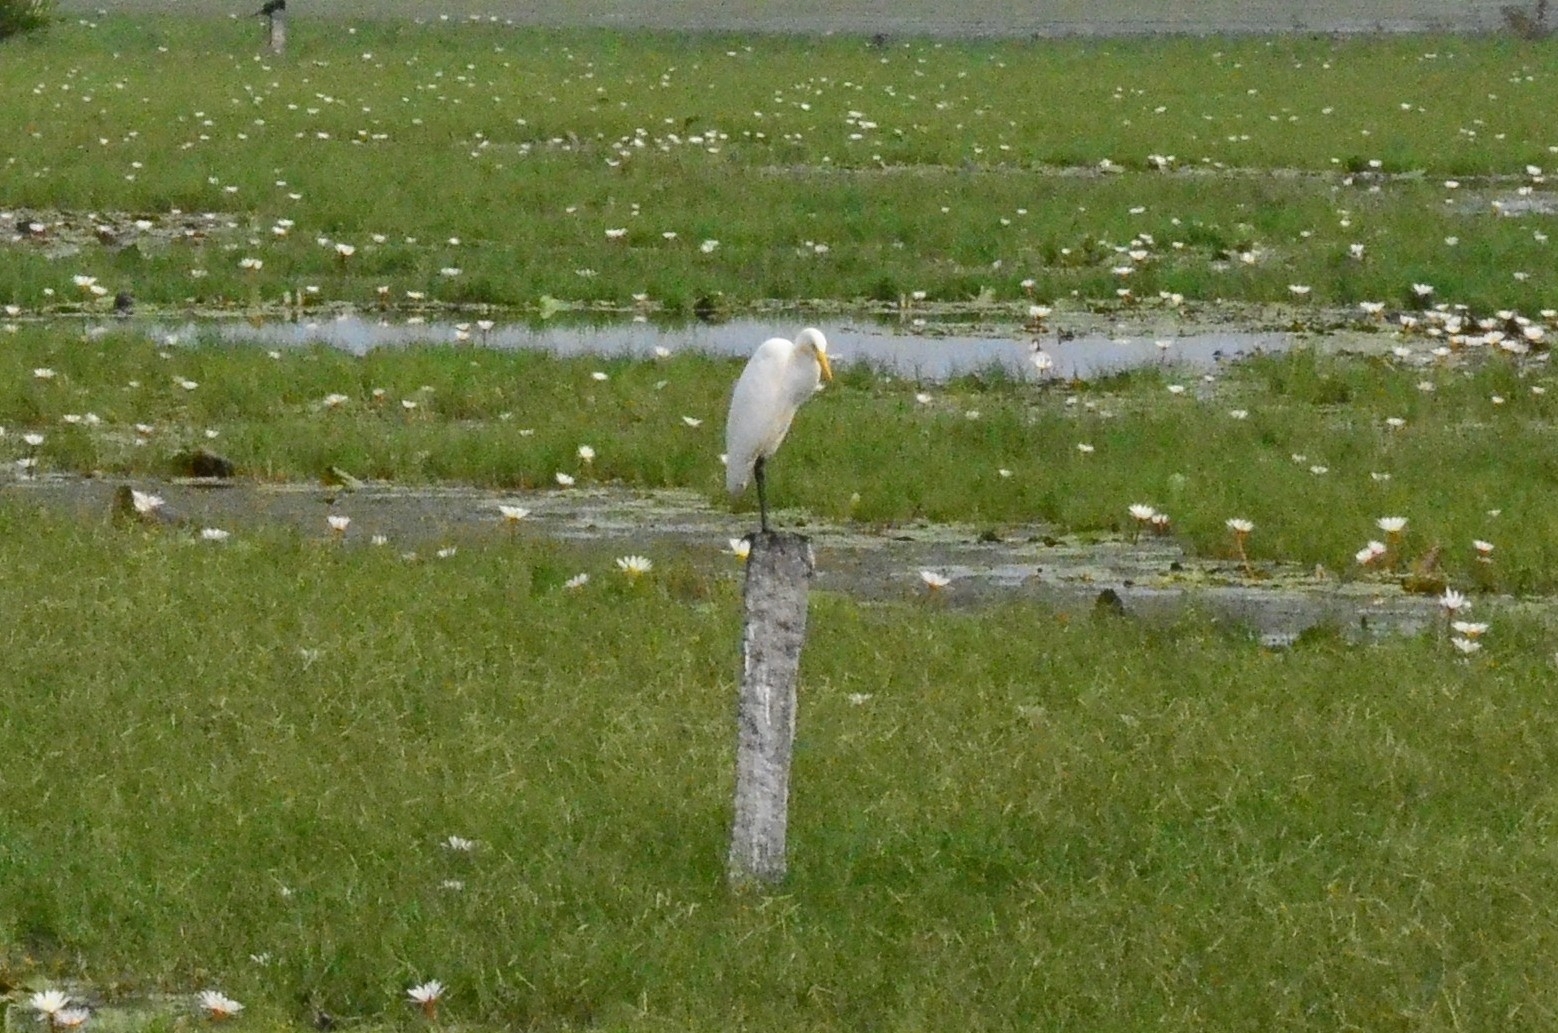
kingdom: Animalia
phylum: Chordata
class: Aves
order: Pelecaniformes
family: Ardeidae
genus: Bubulcus
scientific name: Bubulcus coromandus
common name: Eastern cattle egret
